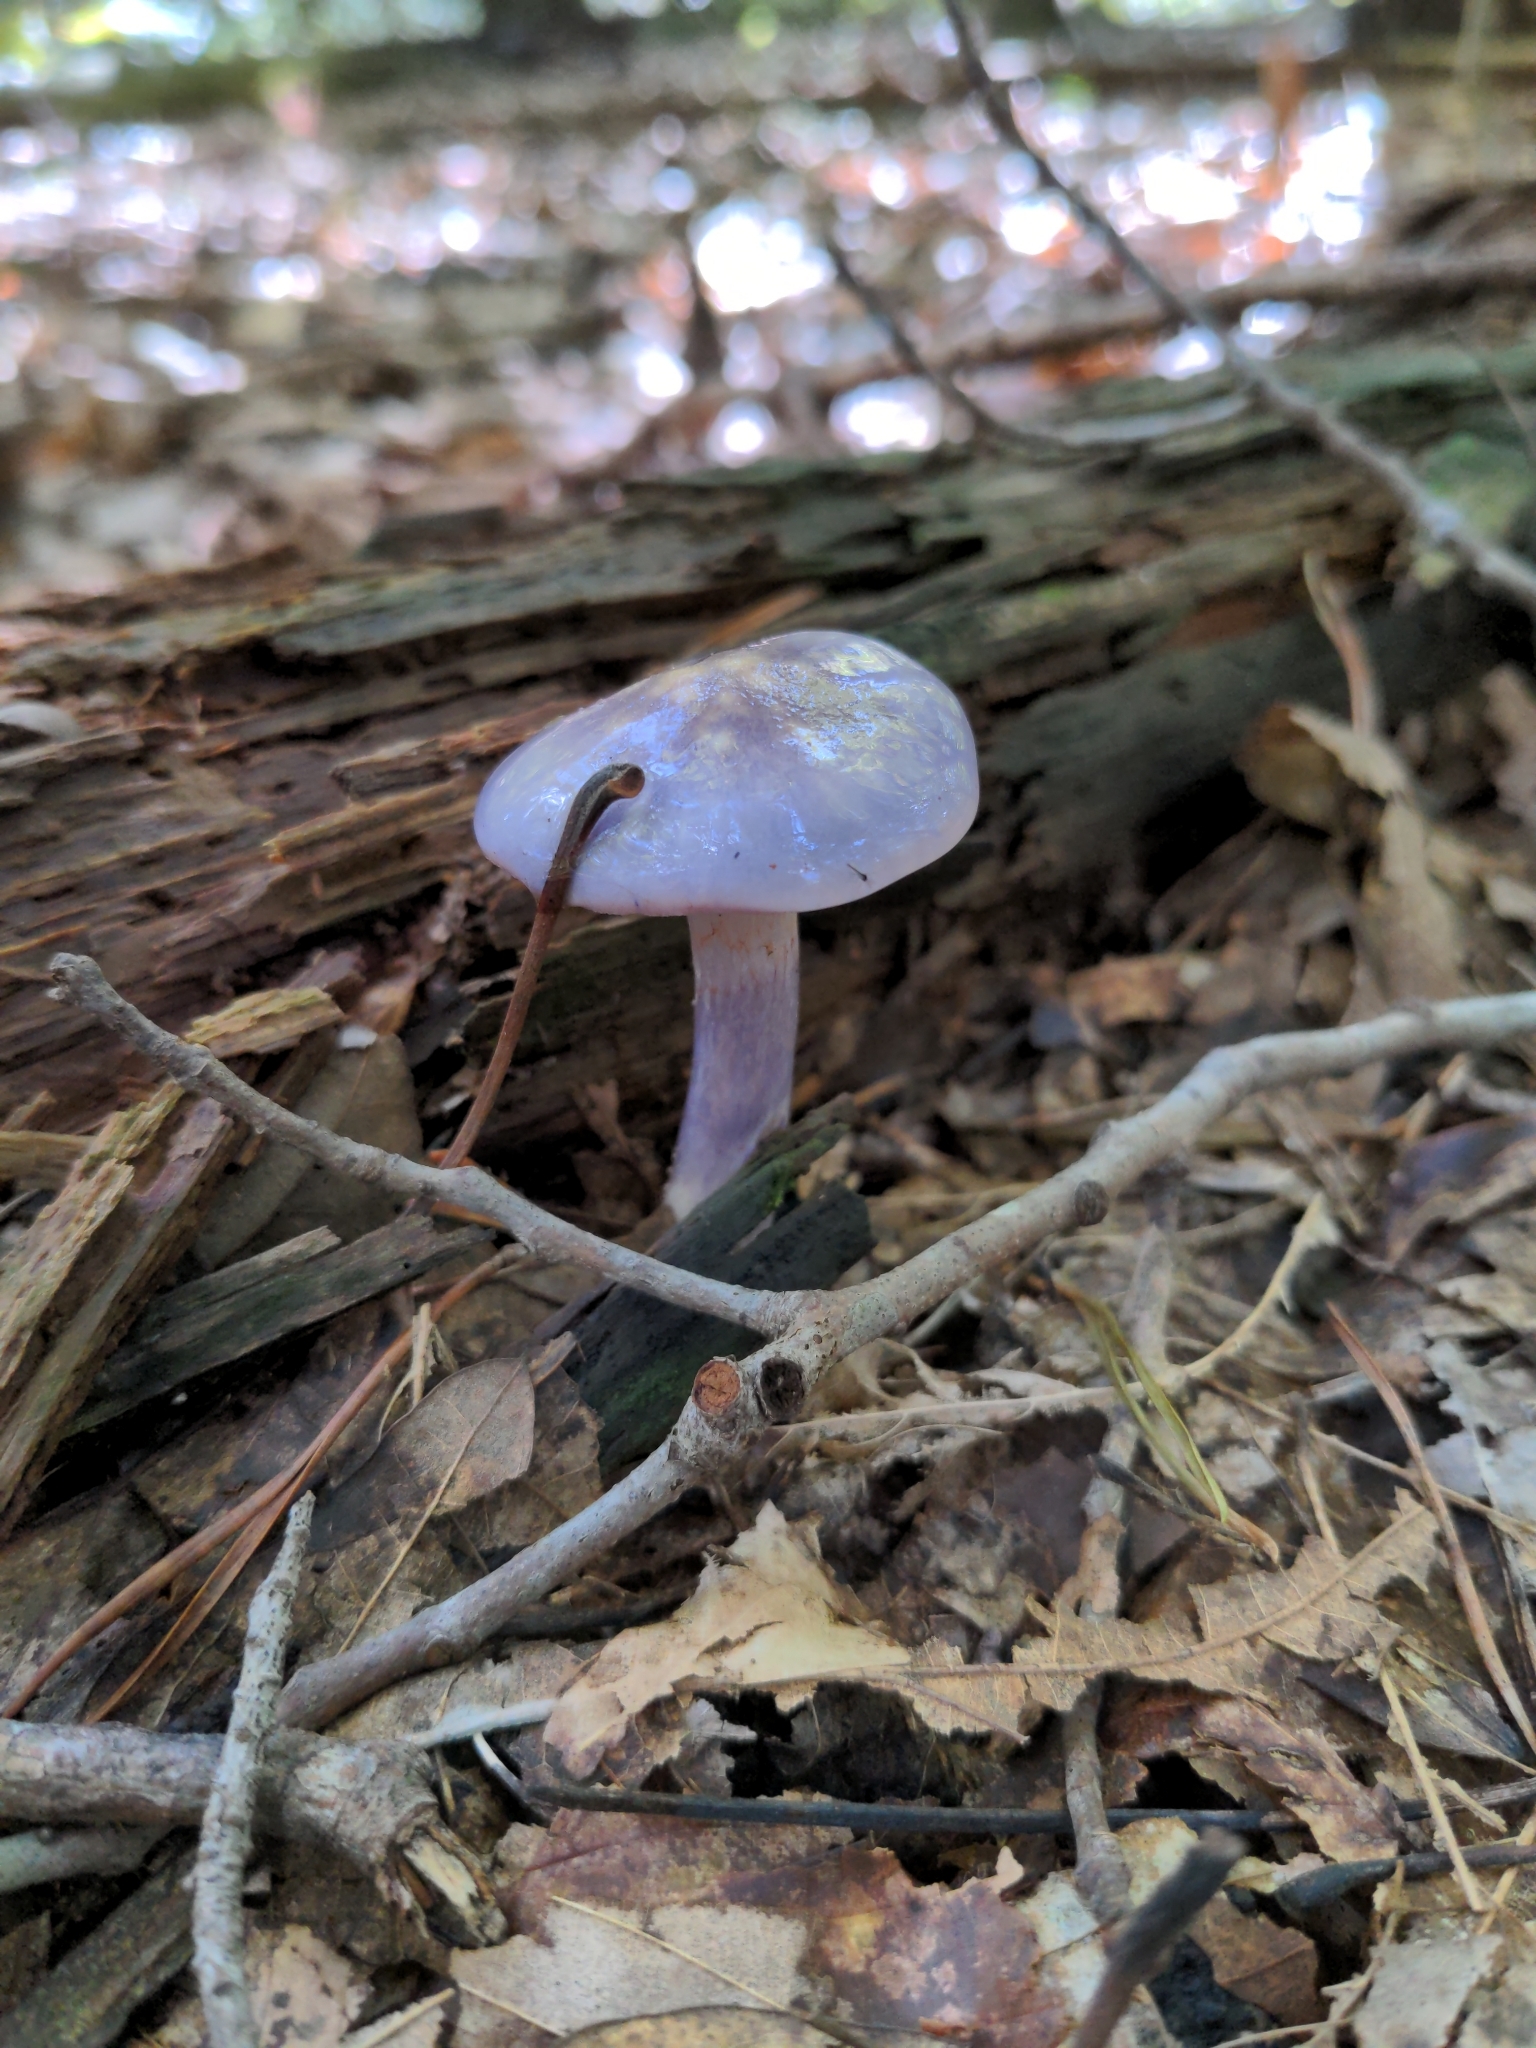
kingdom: Fungi
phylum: Basidiomycota
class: Agaricomycetes
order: Agaricales
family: Cortinariaceae
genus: Cortinarius
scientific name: Cortinarius iodes
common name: Viscid violet cort
